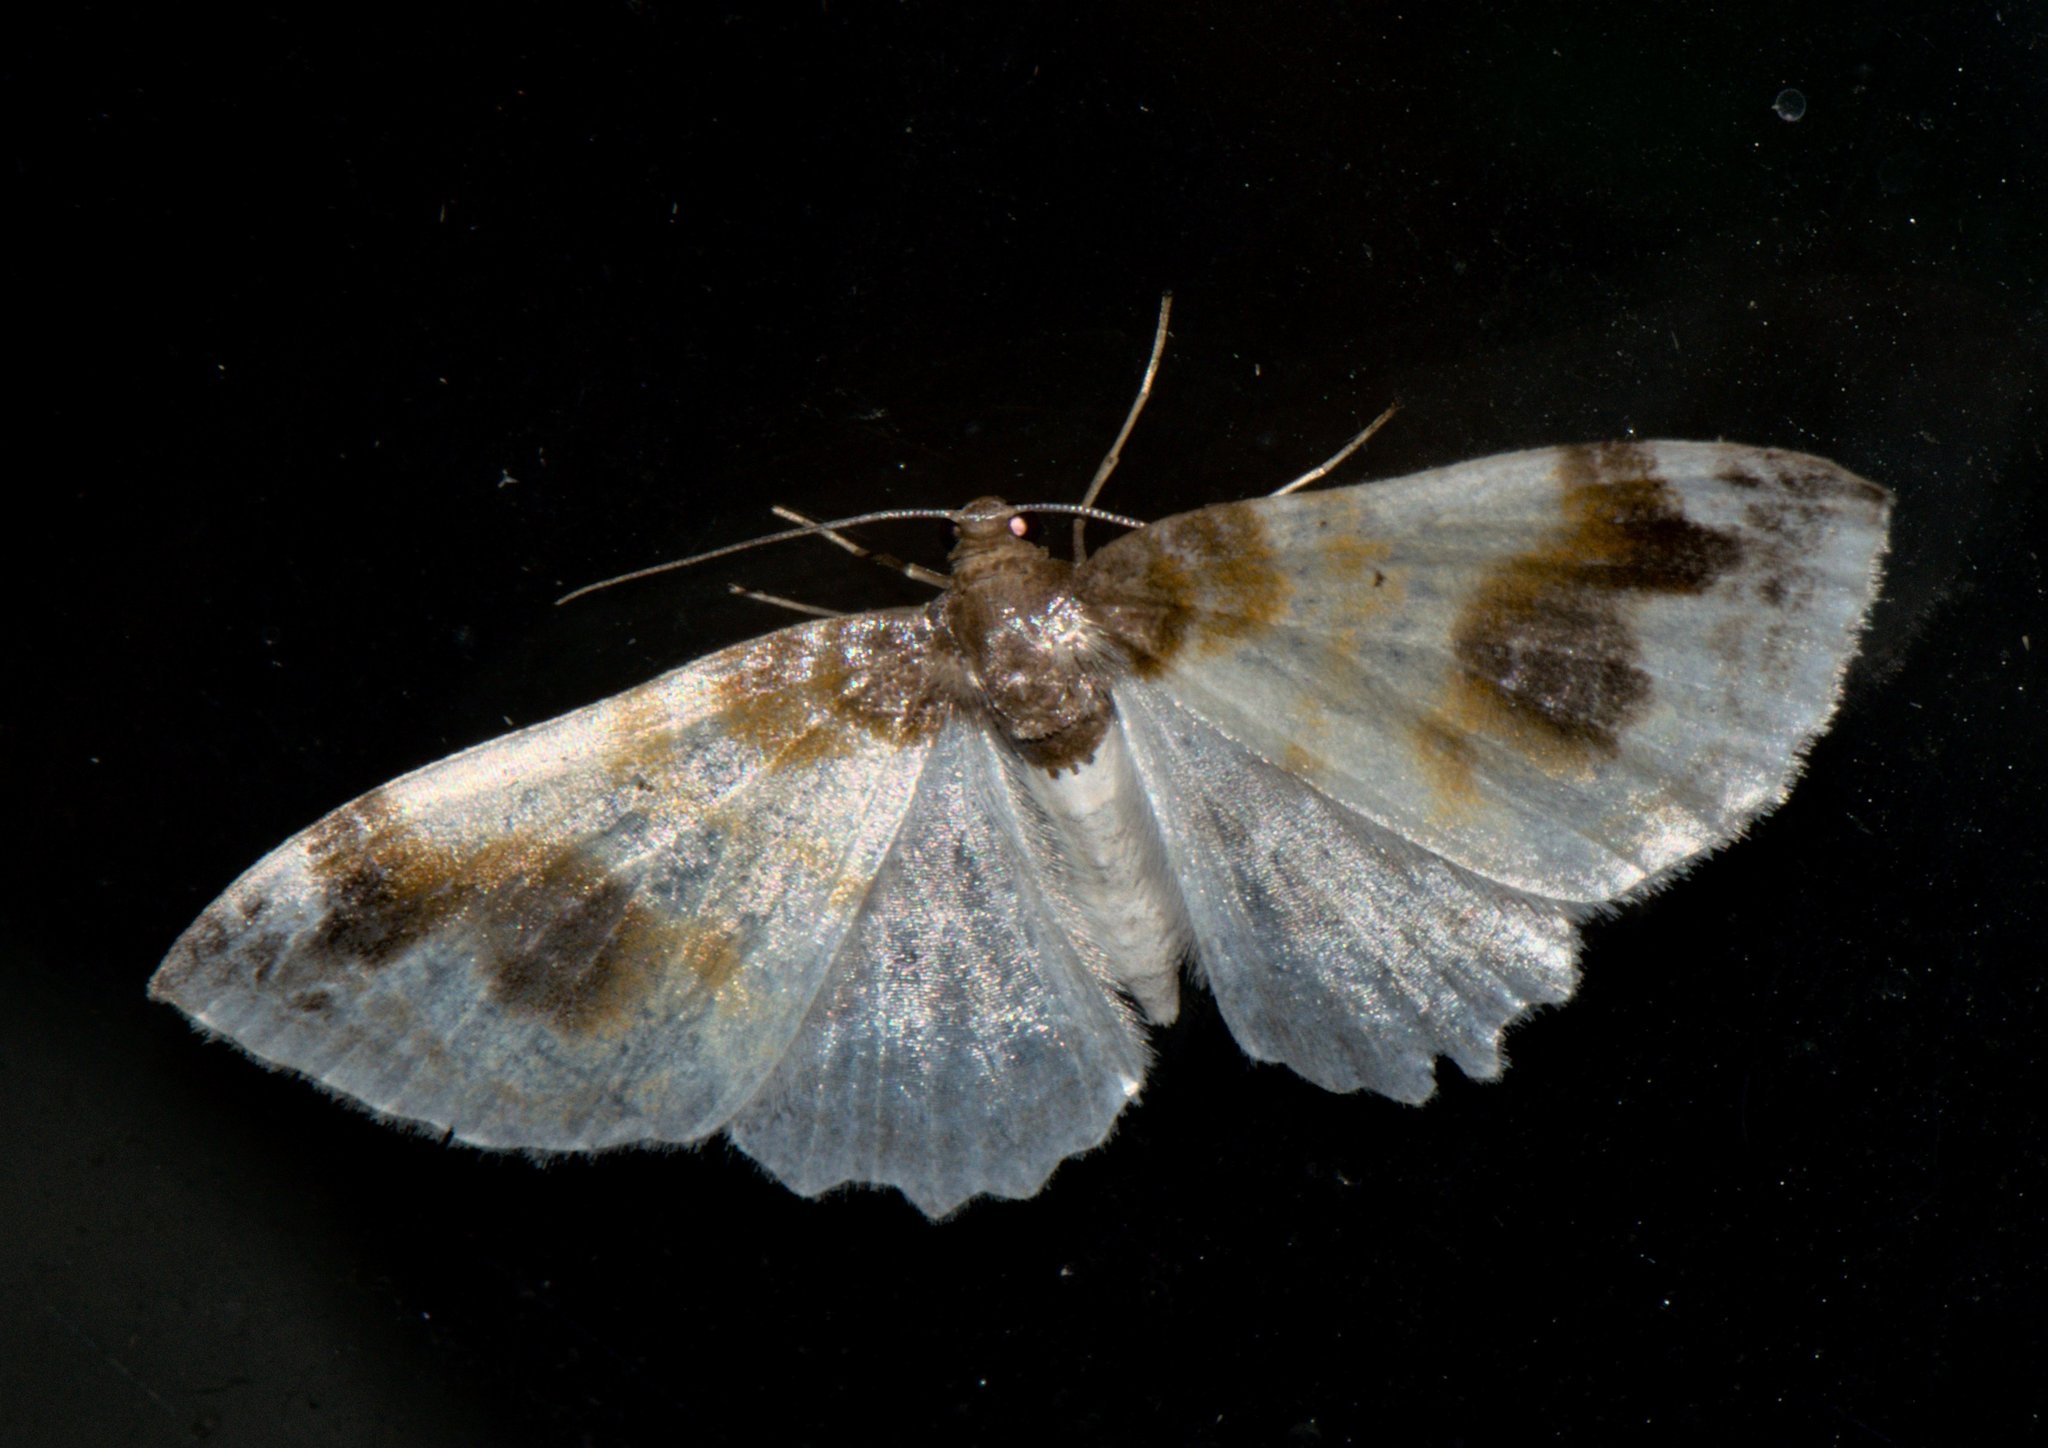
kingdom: Animalia
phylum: Arthropoda
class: Insecta
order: Lepidoptera
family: Geometridae
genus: Agnibesa
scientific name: Agnibesa pictaria
